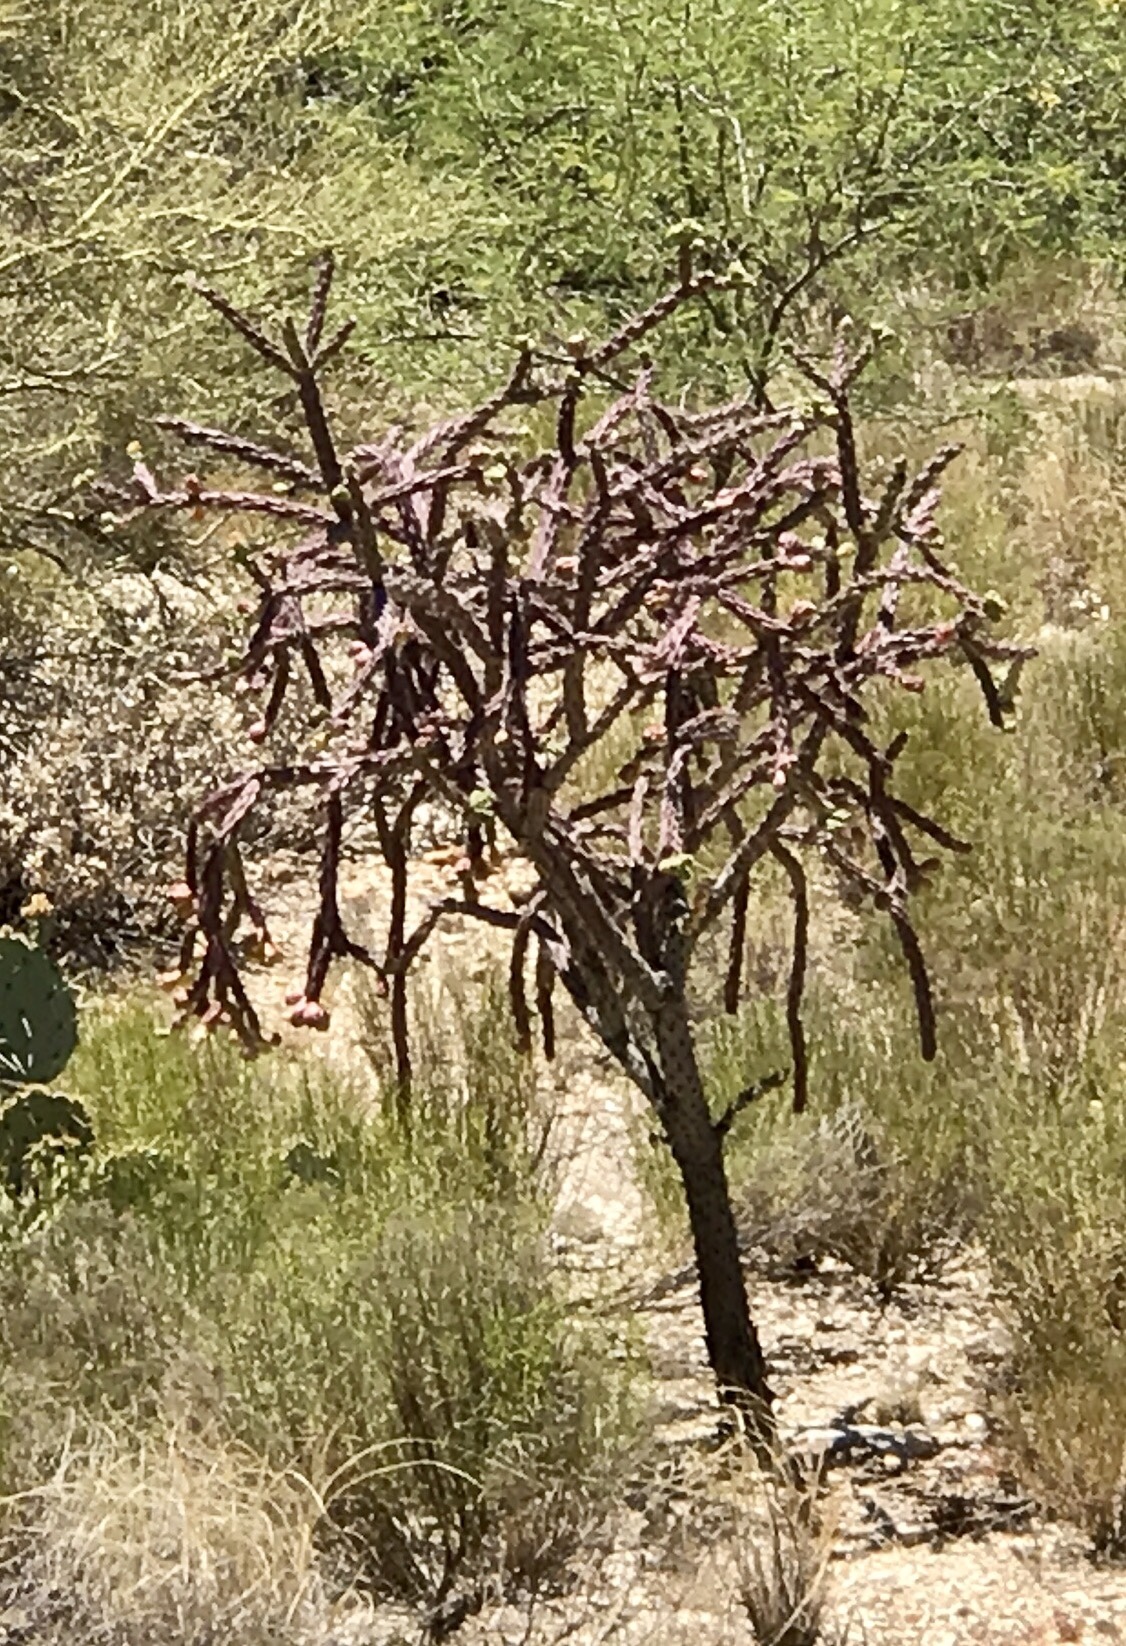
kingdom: Plantae
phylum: Tracheophyta
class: Magnoliopsida
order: Caryophyllales
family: Cactaceae
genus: Cylindropuntia
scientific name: Cylindropuntia thurberi
